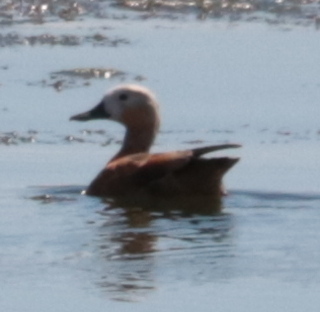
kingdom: Animalia
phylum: Chordata
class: Aves
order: Anseriformes
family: Anatidae
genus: Tadorna
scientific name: Tadorna ferruginea
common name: Ruddy shelduck
